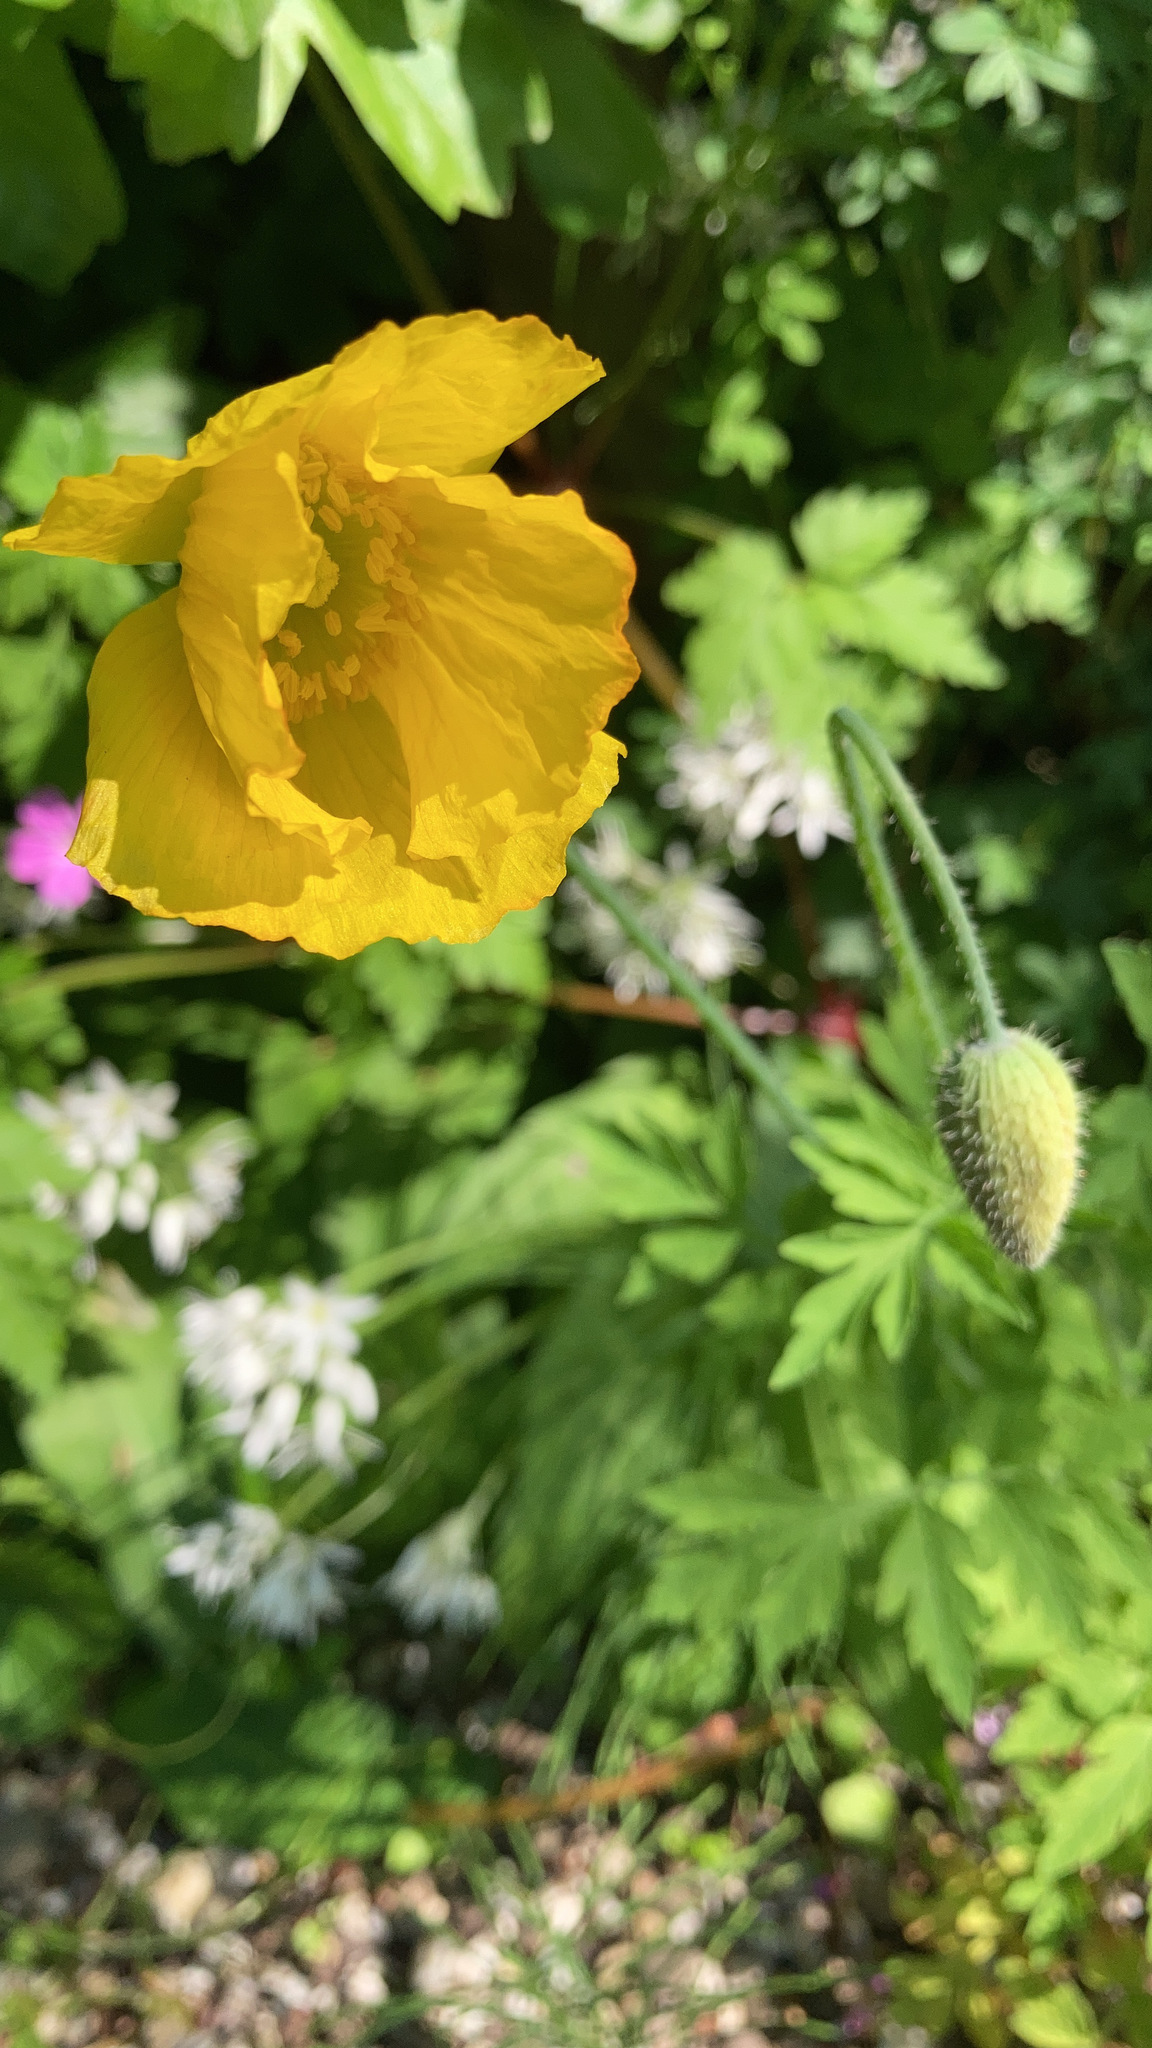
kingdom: Plantae
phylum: Tracheophyta
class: Magnoliopsida
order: Ranunculales
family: Papaveraceae
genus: Papaver
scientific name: Papaver cambricum
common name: Poppy
